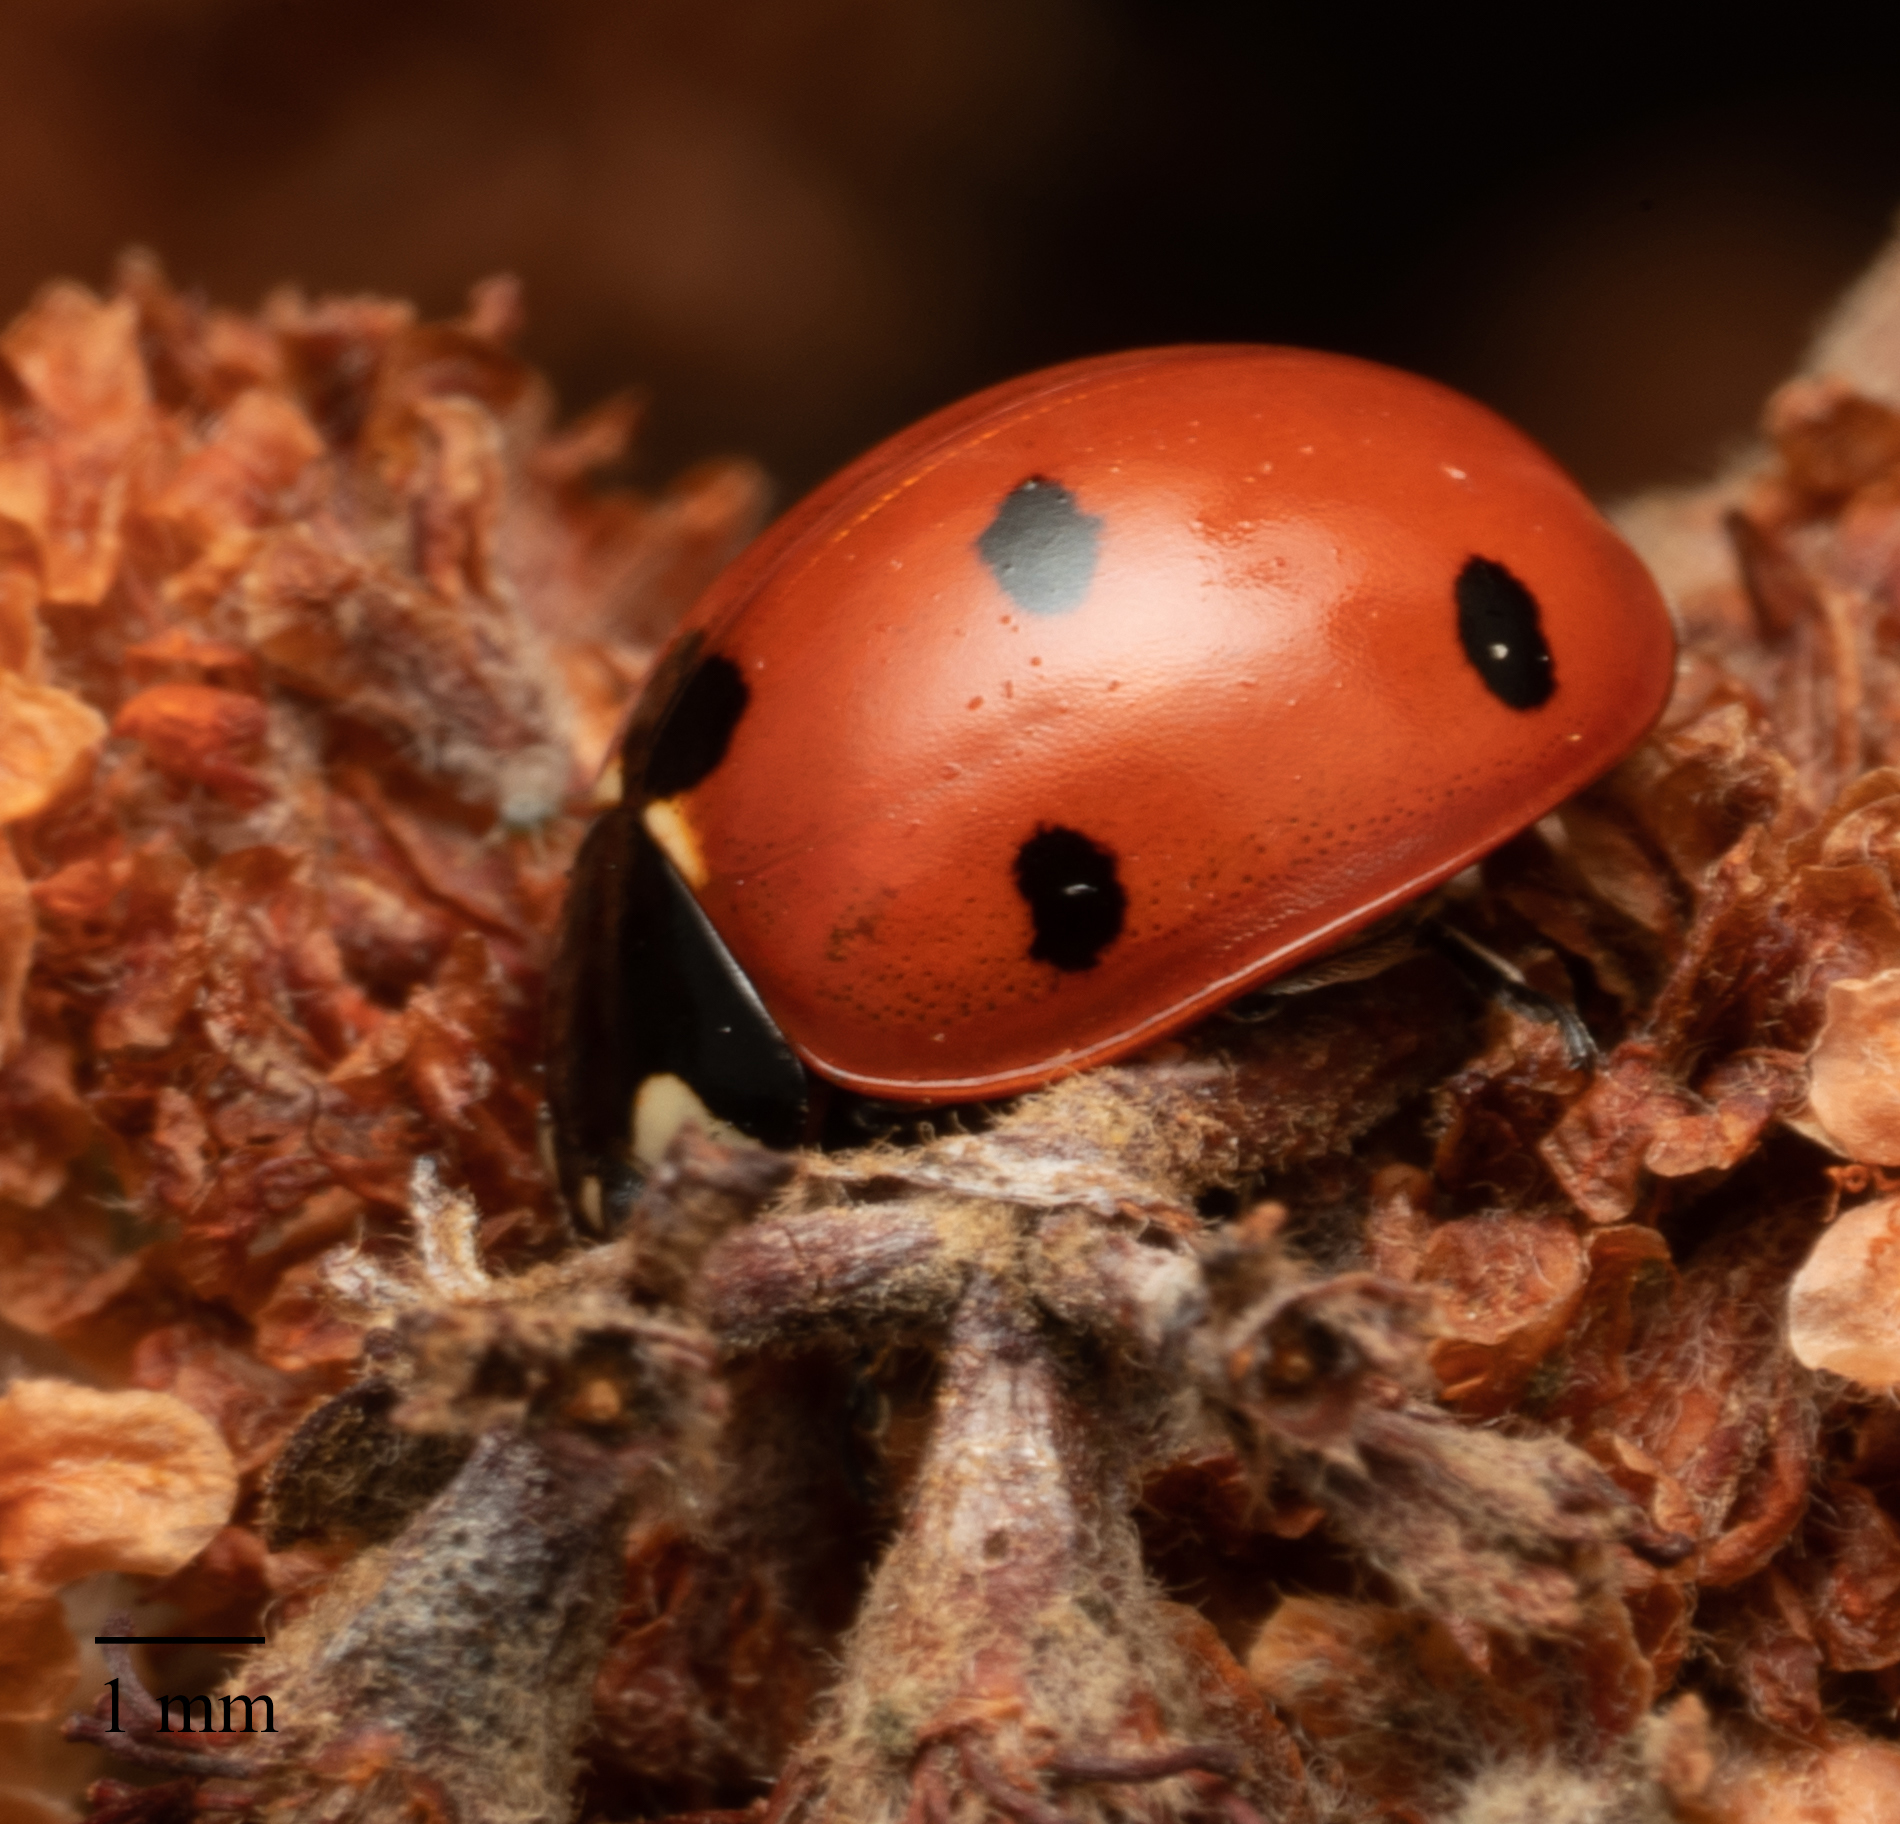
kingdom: Animalia
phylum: Arthropoda
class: Insecta
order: Coleoptera
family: Coccinellidae
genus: Coccinella
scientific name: Coccinella septempunctata
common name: Sevenspotted lady beetle
